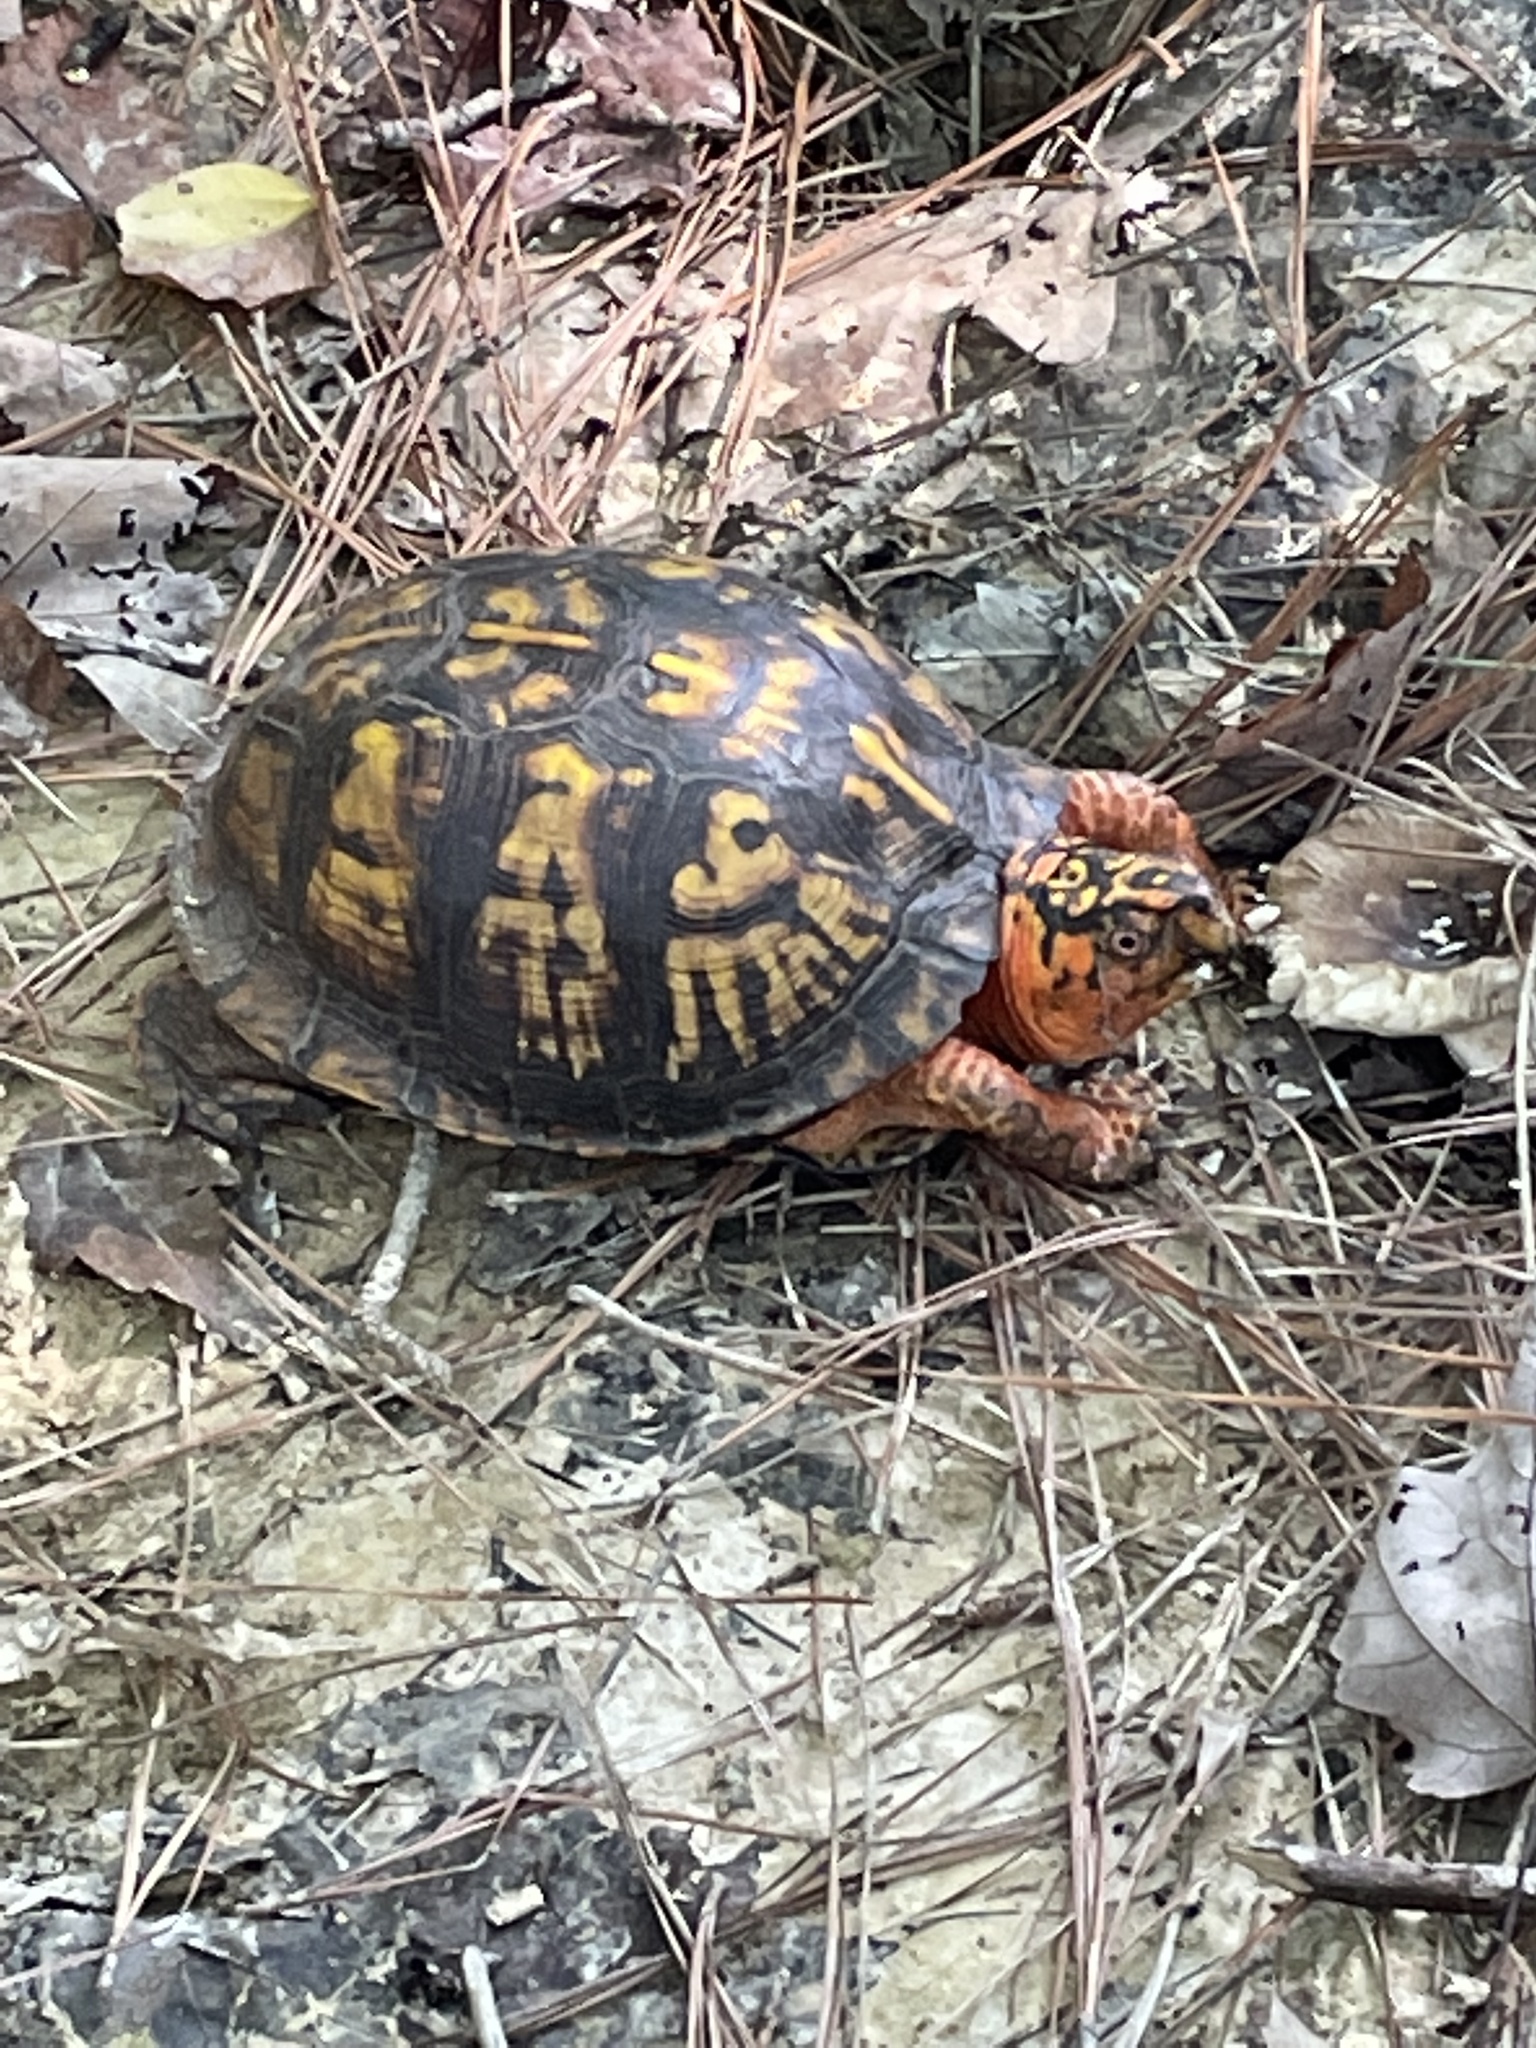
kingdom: Animalia
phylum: Chordata
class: Testudines
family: Emydidae
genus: Terrapene
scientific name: Terrapene carolina
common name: Common box turtle
